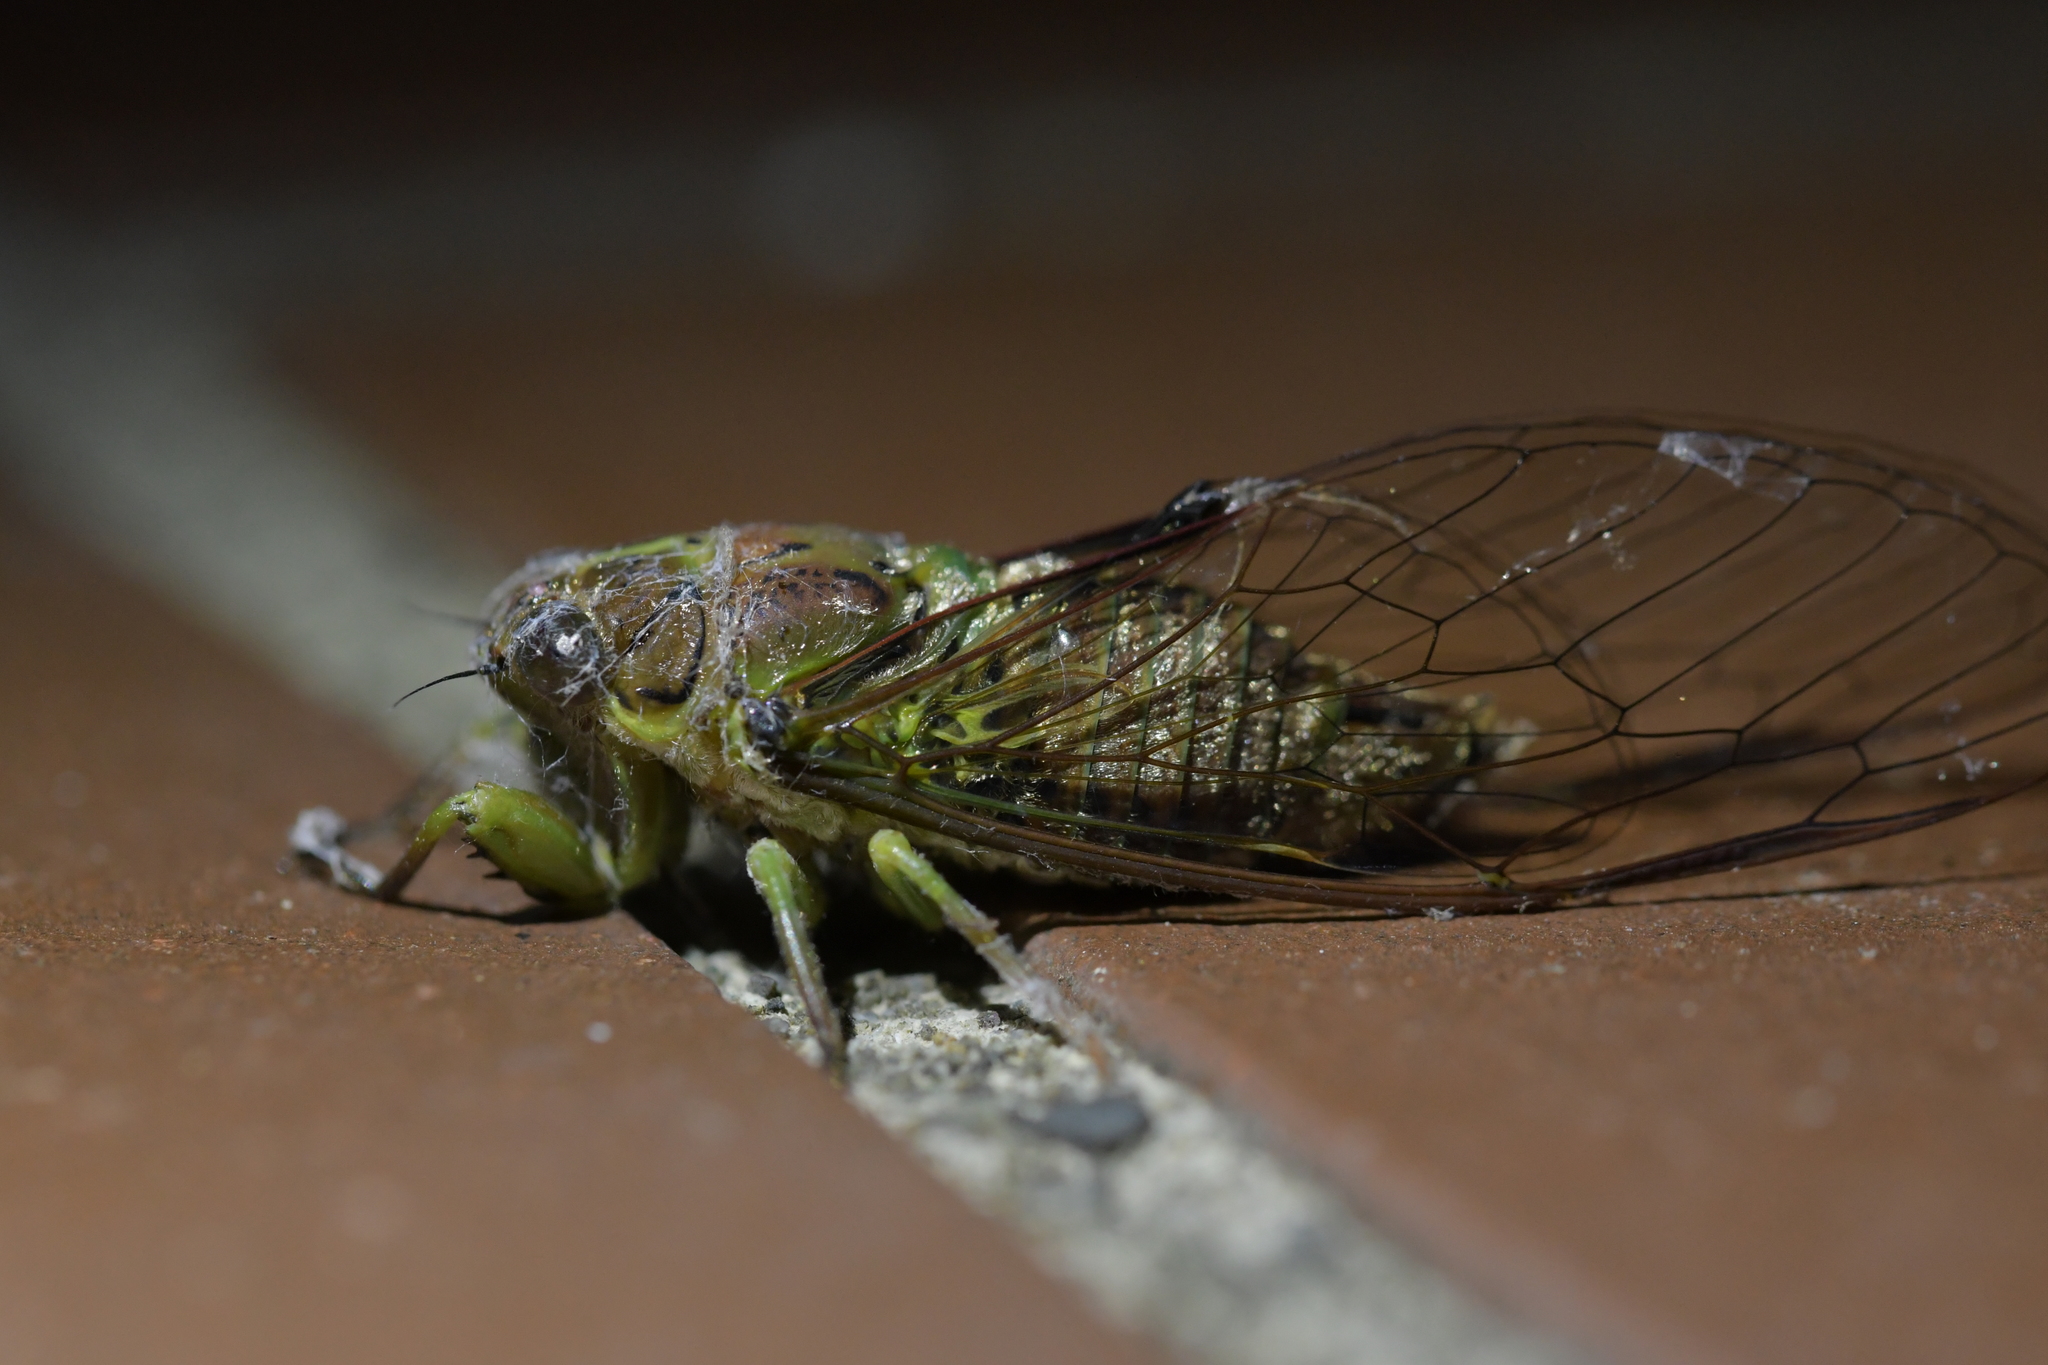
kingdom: Animalia
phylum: Arthropoda
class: Insecta
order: Hemiptera
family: Cicadidae
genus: Kikihia
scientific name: Kikihia scutellaris
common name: Lesser bronze cicada
